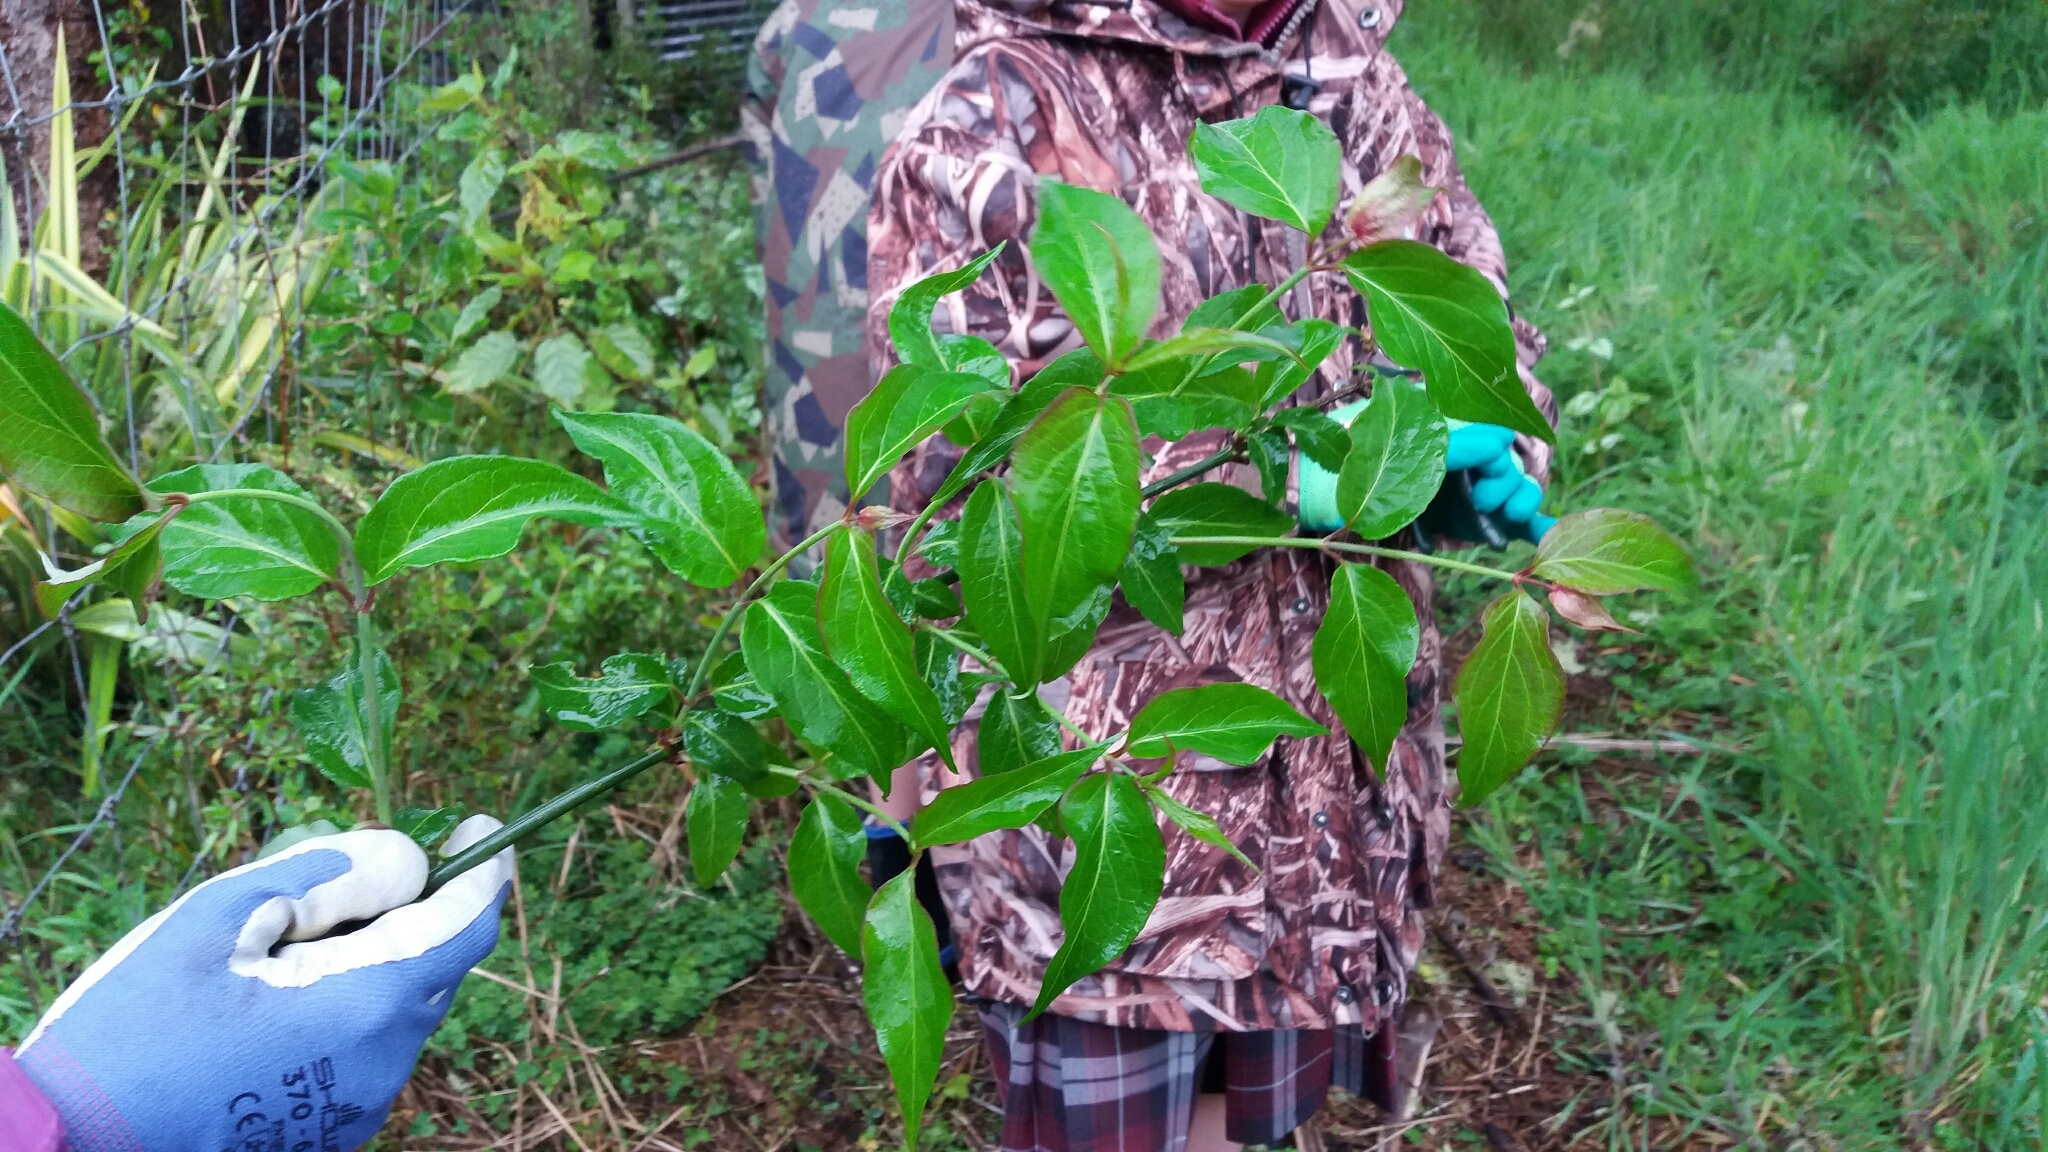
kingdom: Plantae
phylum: Tracheophyta
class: Magnoliopsida
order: Dipsacales
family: Caprifoliaceae
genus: Leycesteria
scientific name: Leycesteria formosa
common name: Himalayan honeysuckle
